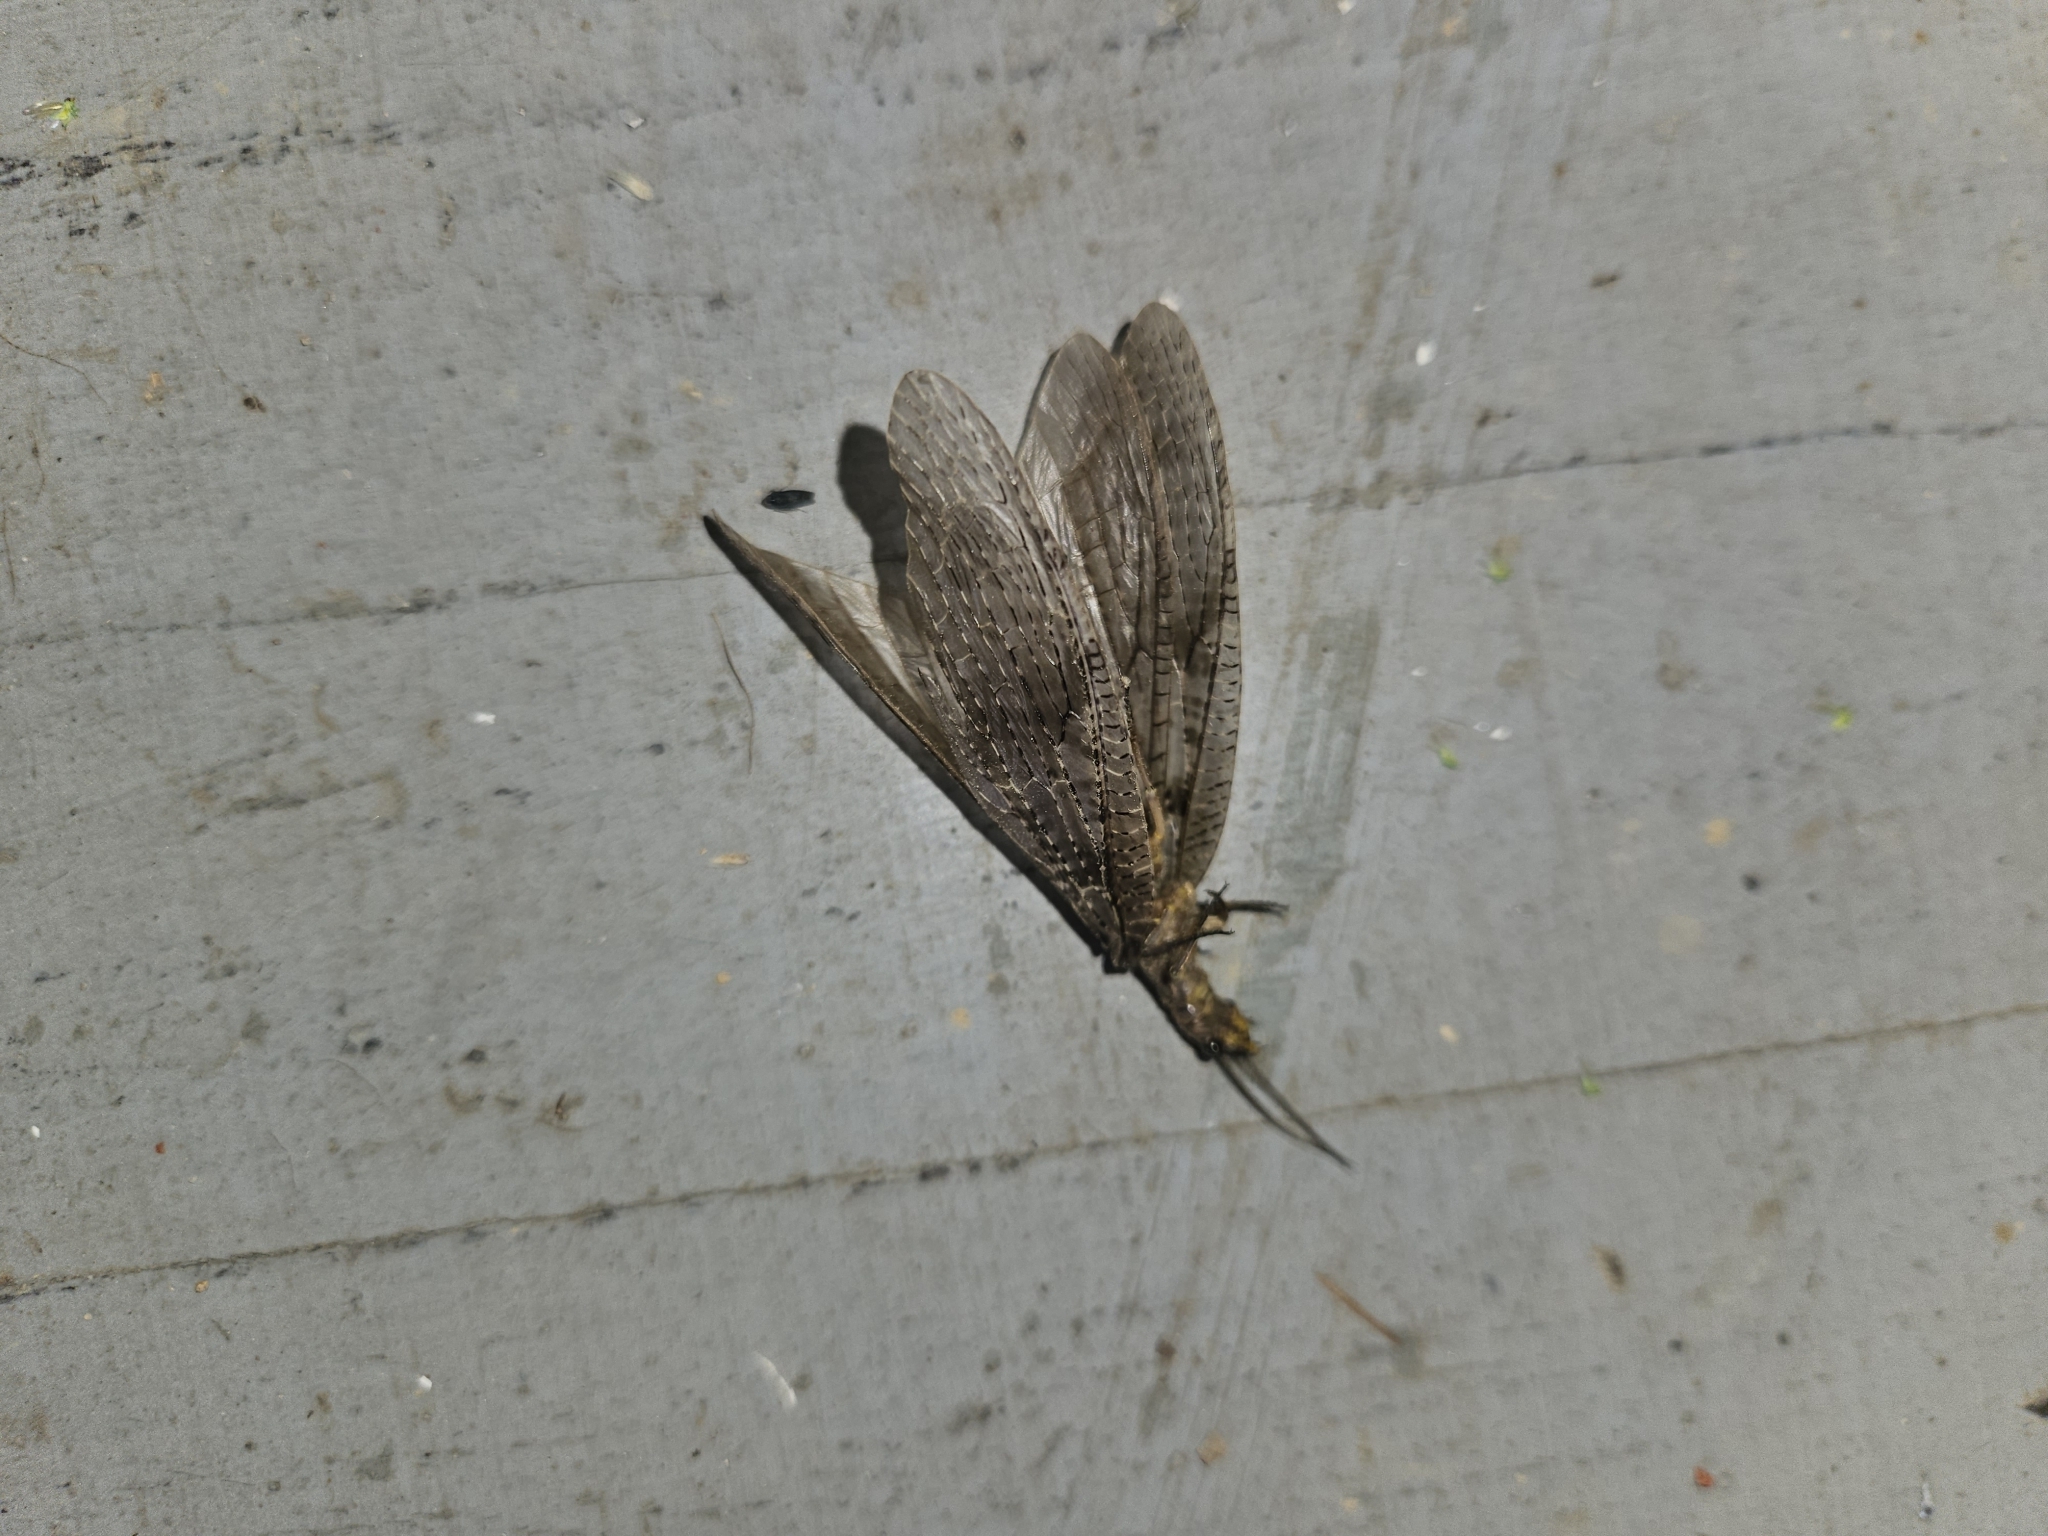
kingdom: Animalia
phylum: Arthropoda
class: Insecta
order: Megaloptera
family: Corydalidae
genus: Chauliodes
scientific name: Chauliodes pectinicornis
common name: Summer fishfly
